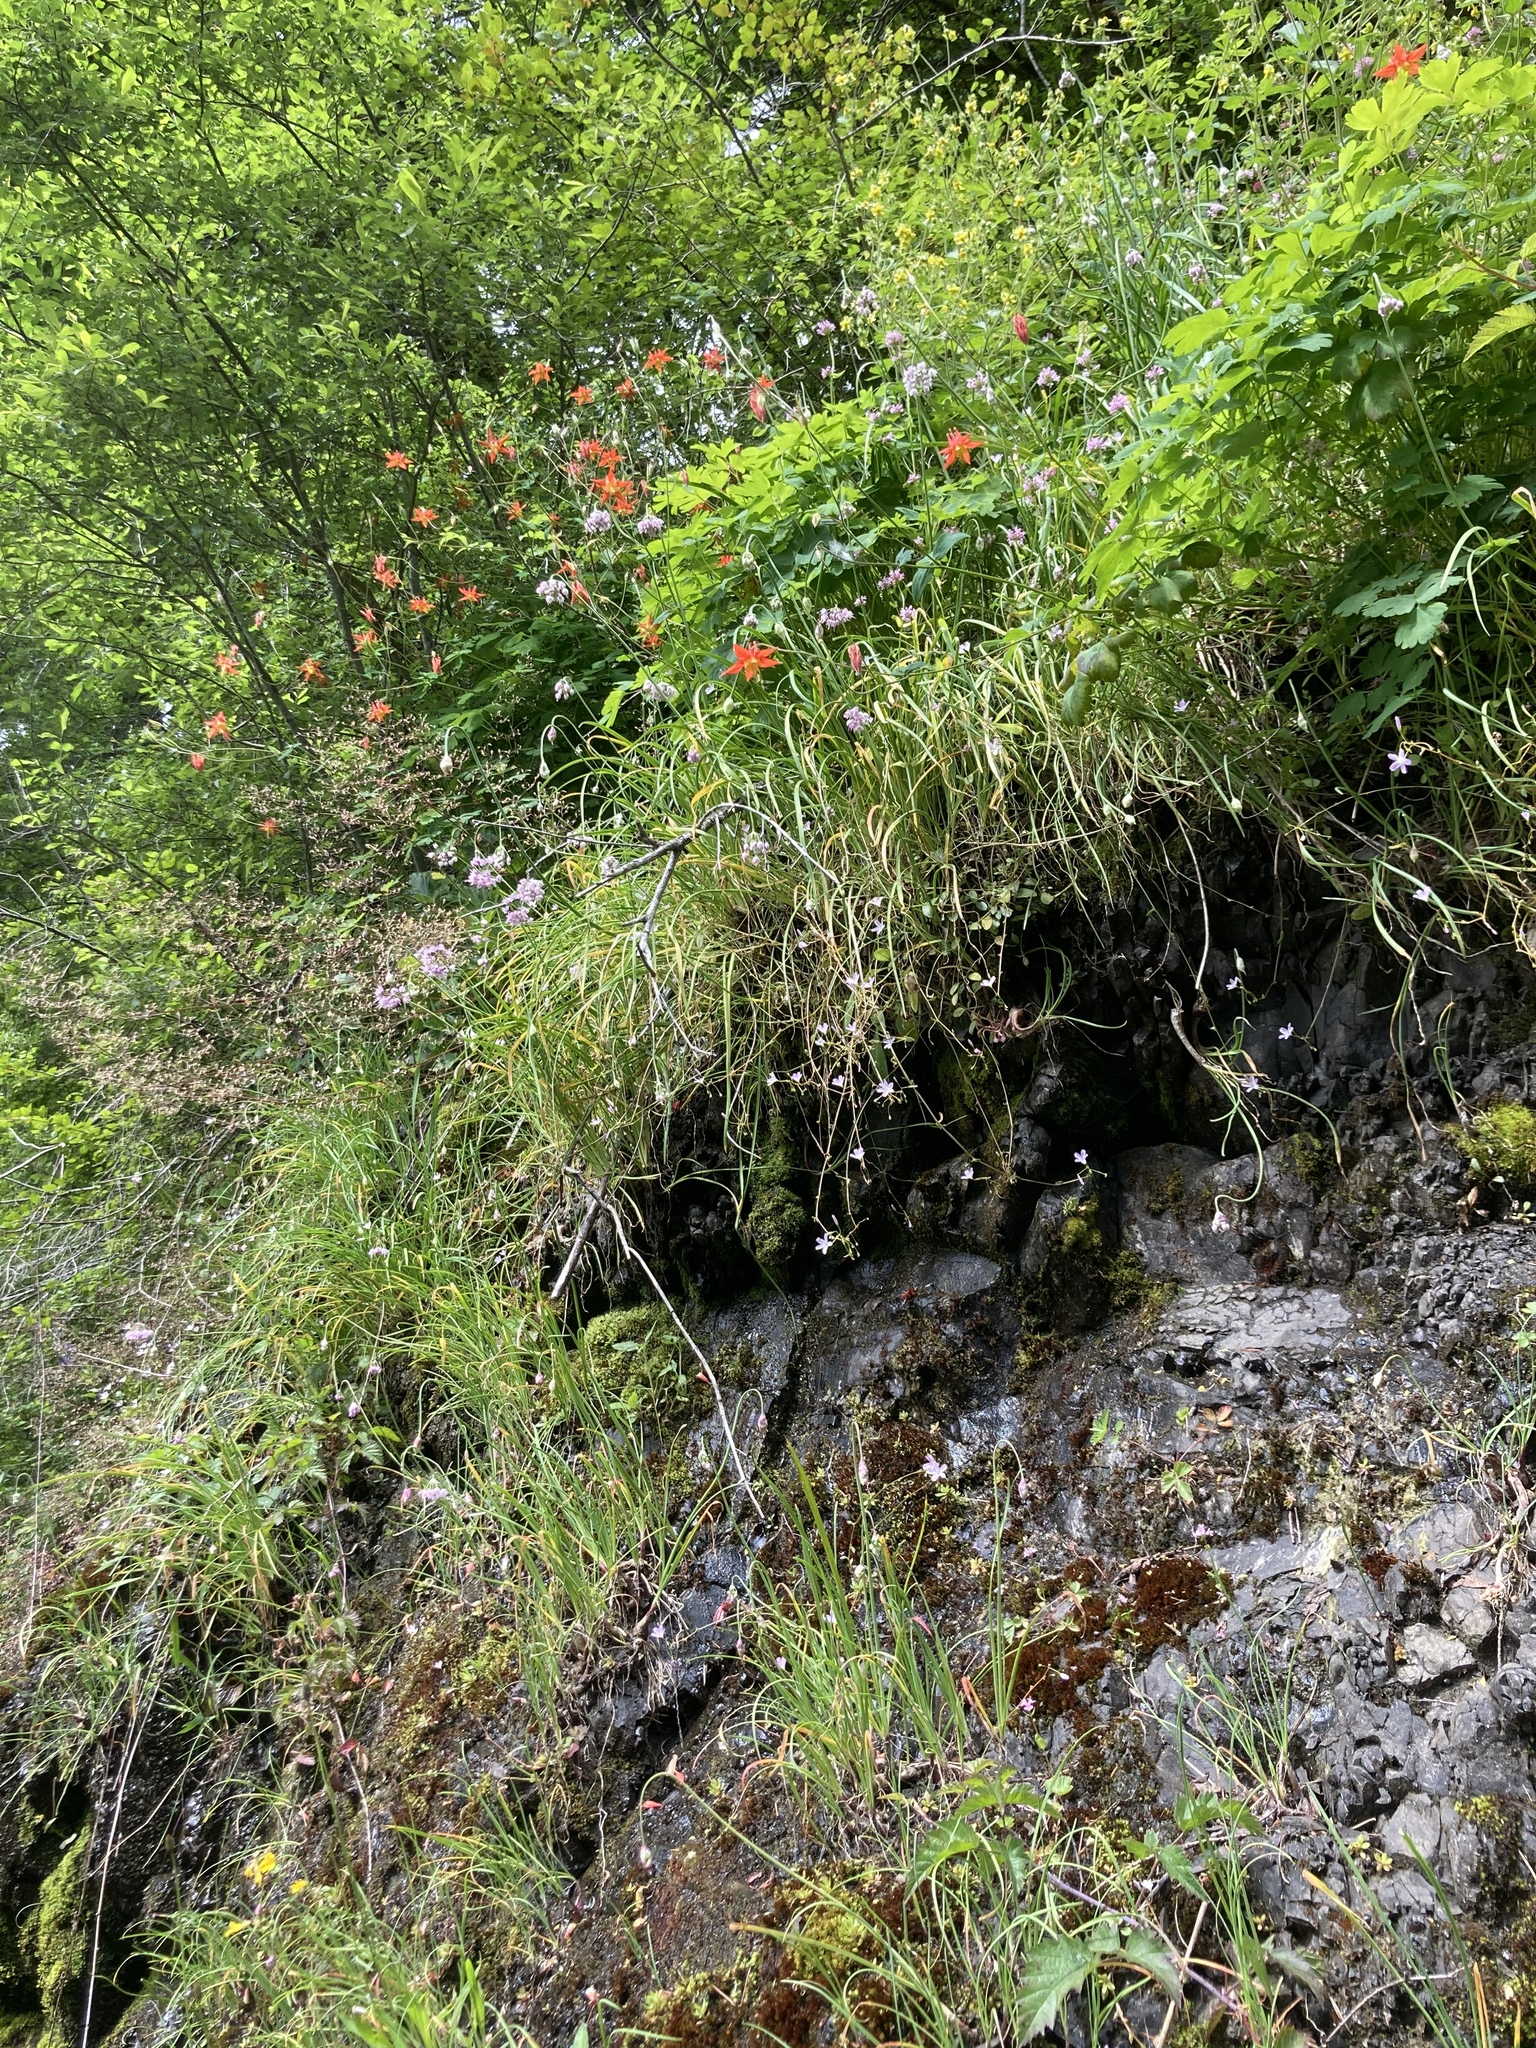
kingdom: Plantae
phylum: Tracheophyta
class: Magnoliopsida
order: Ranunculales
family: Ranunculaceae
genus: Aquilegia
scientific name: Aquilegia formosa
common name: Sitka columbine
